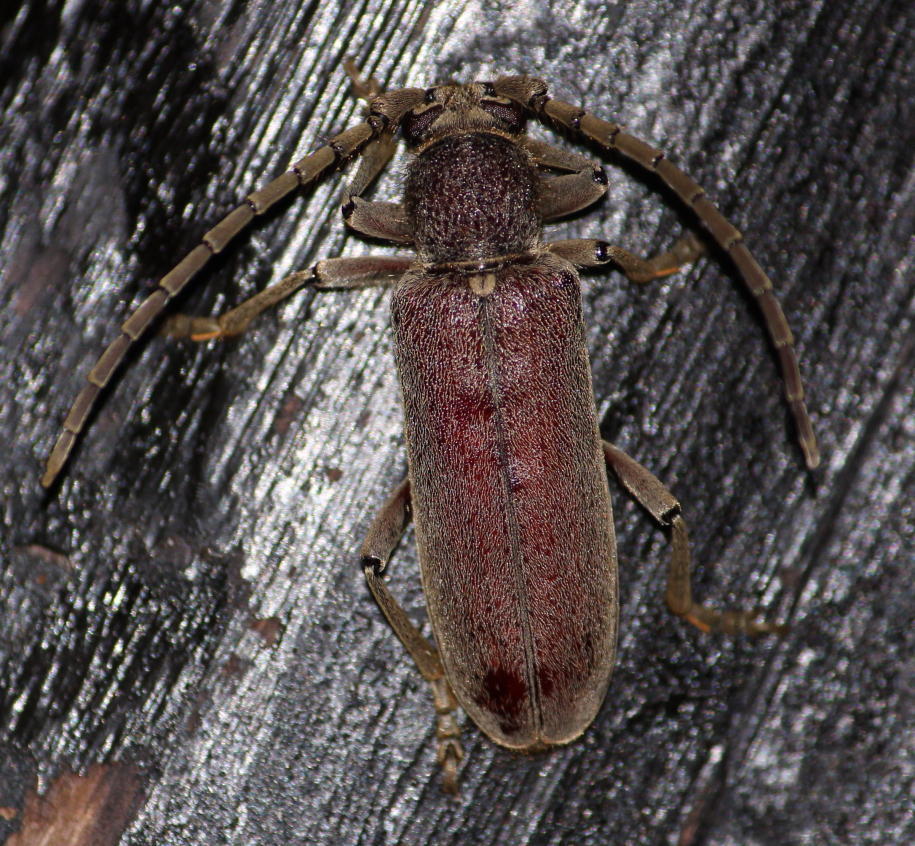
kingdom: Animalia
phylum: Arthropoda
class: Insecta
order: Coleoptera
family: Cerambycidae
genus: Africophanes
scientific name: Africophanes amicus
